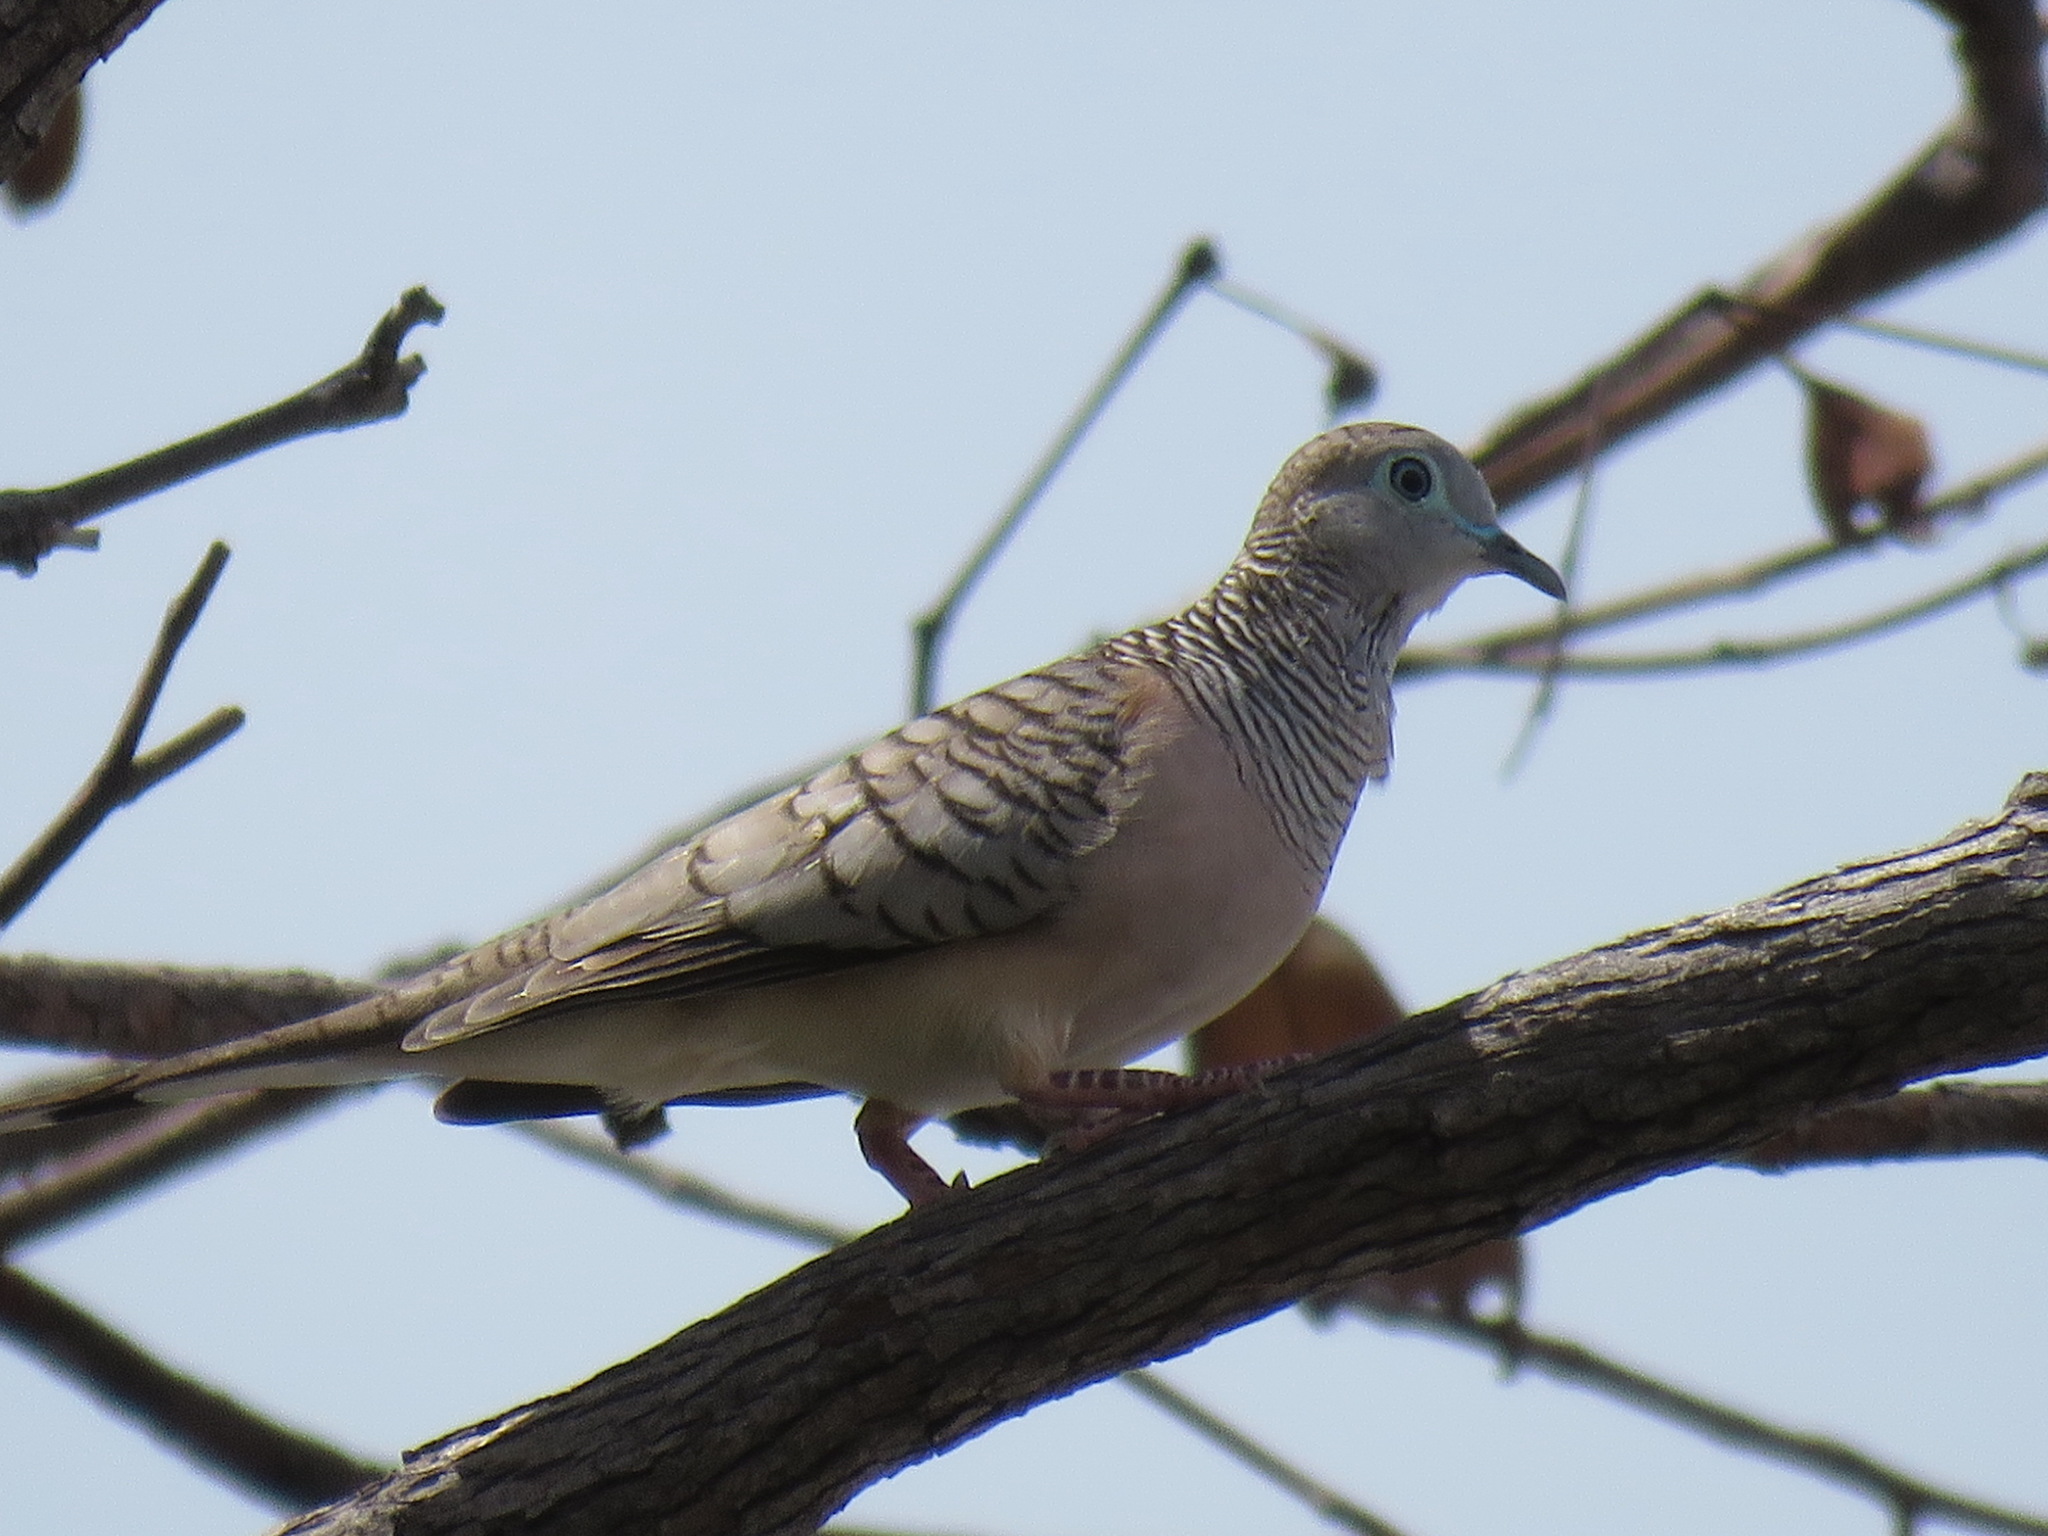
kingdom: Animalia
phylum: Chordata
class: Aves
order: Columbiformes
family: Columbidae
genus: Geopelia
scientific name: Geopelia placida
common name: Peaceful dove
